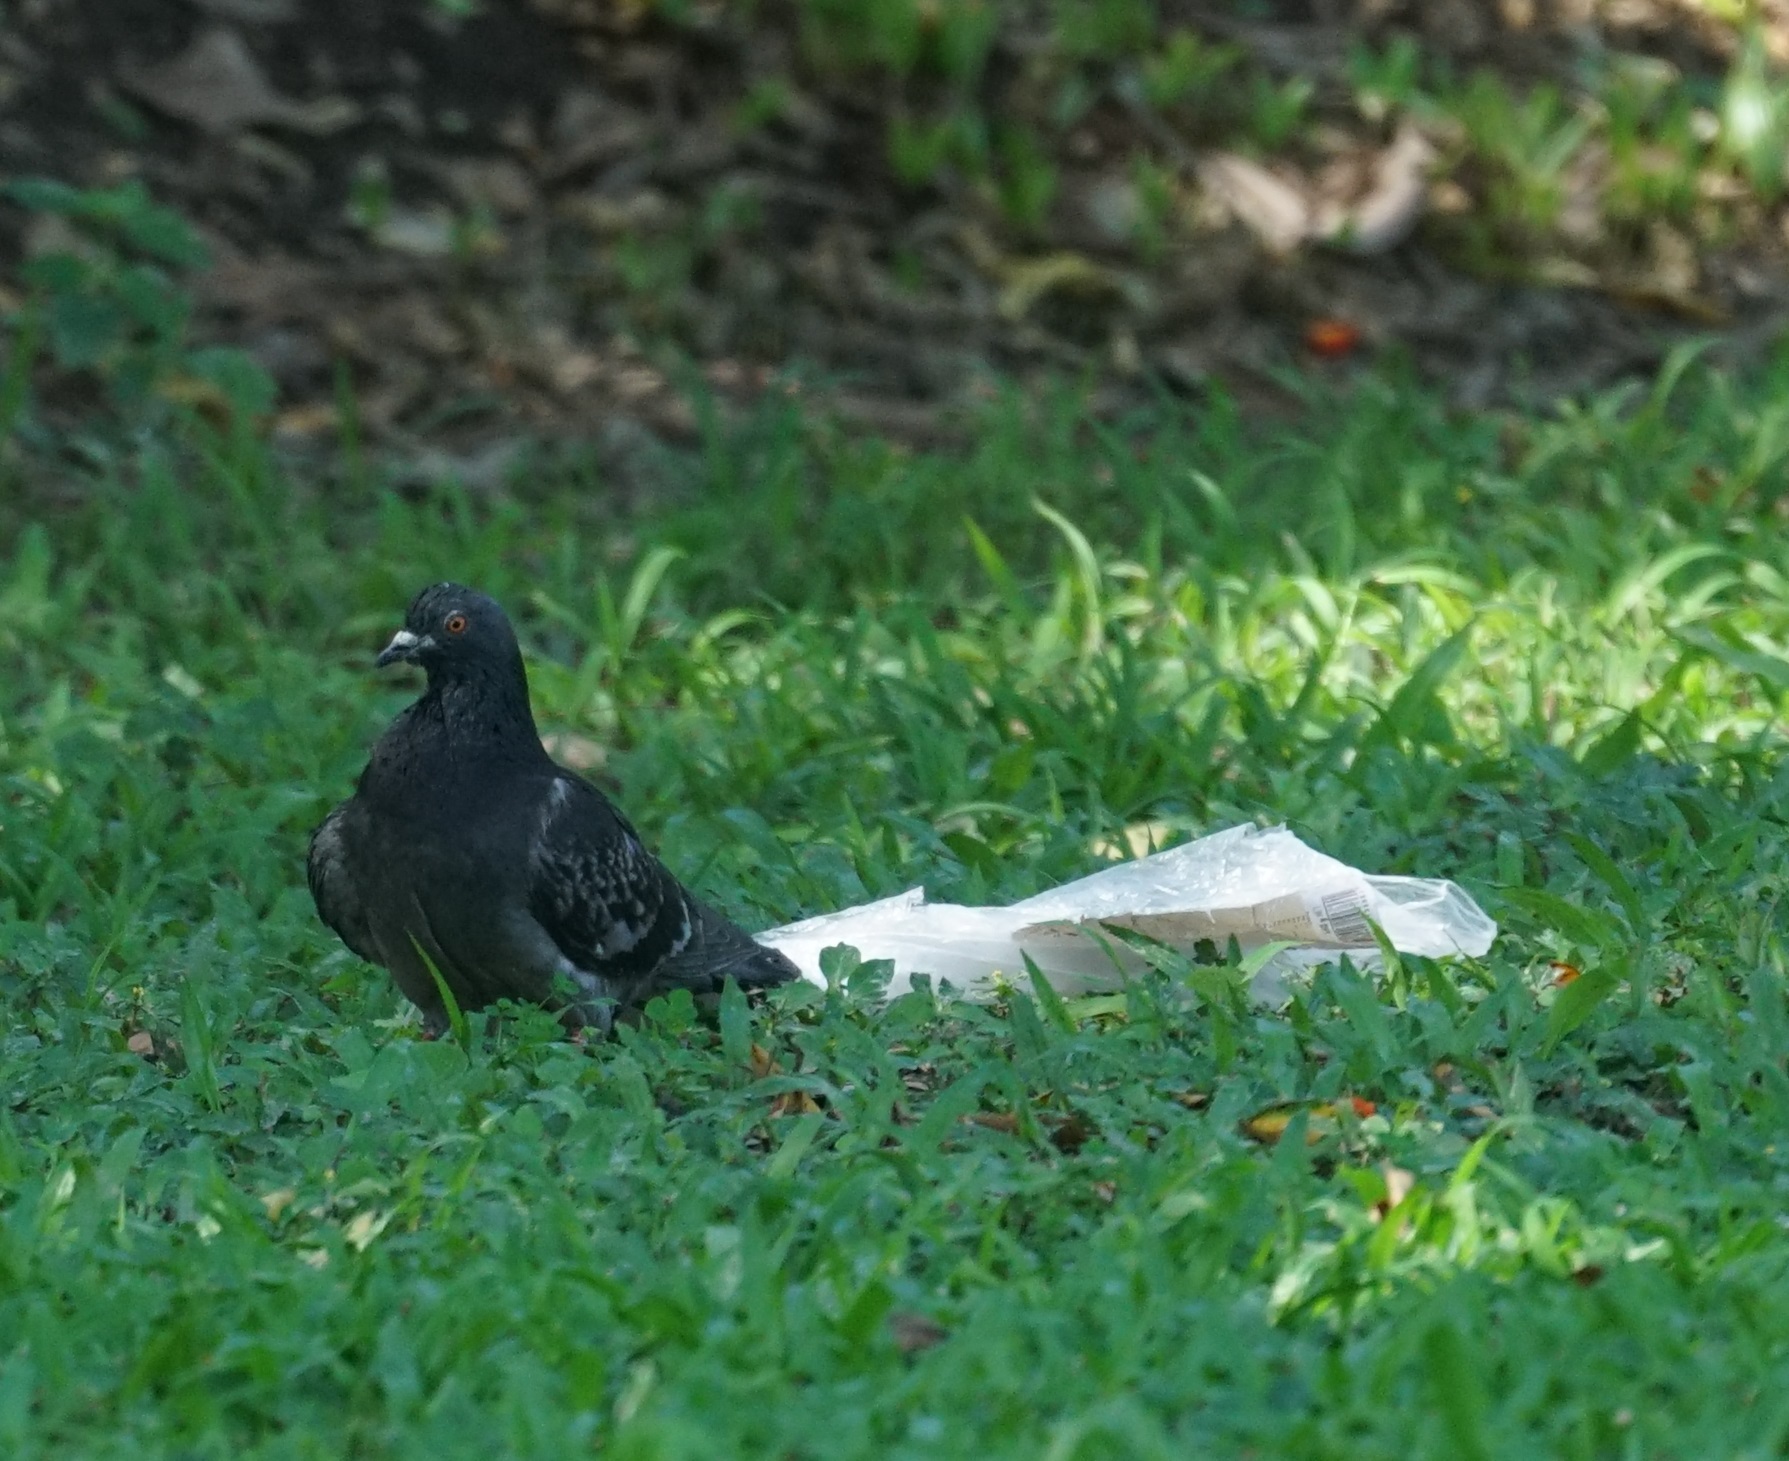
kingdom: Animalia
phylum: Chordata
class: Aves
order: Columbiformes
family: Columbidae
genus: Columba
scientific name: Columba livia
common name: Rock pigeon
